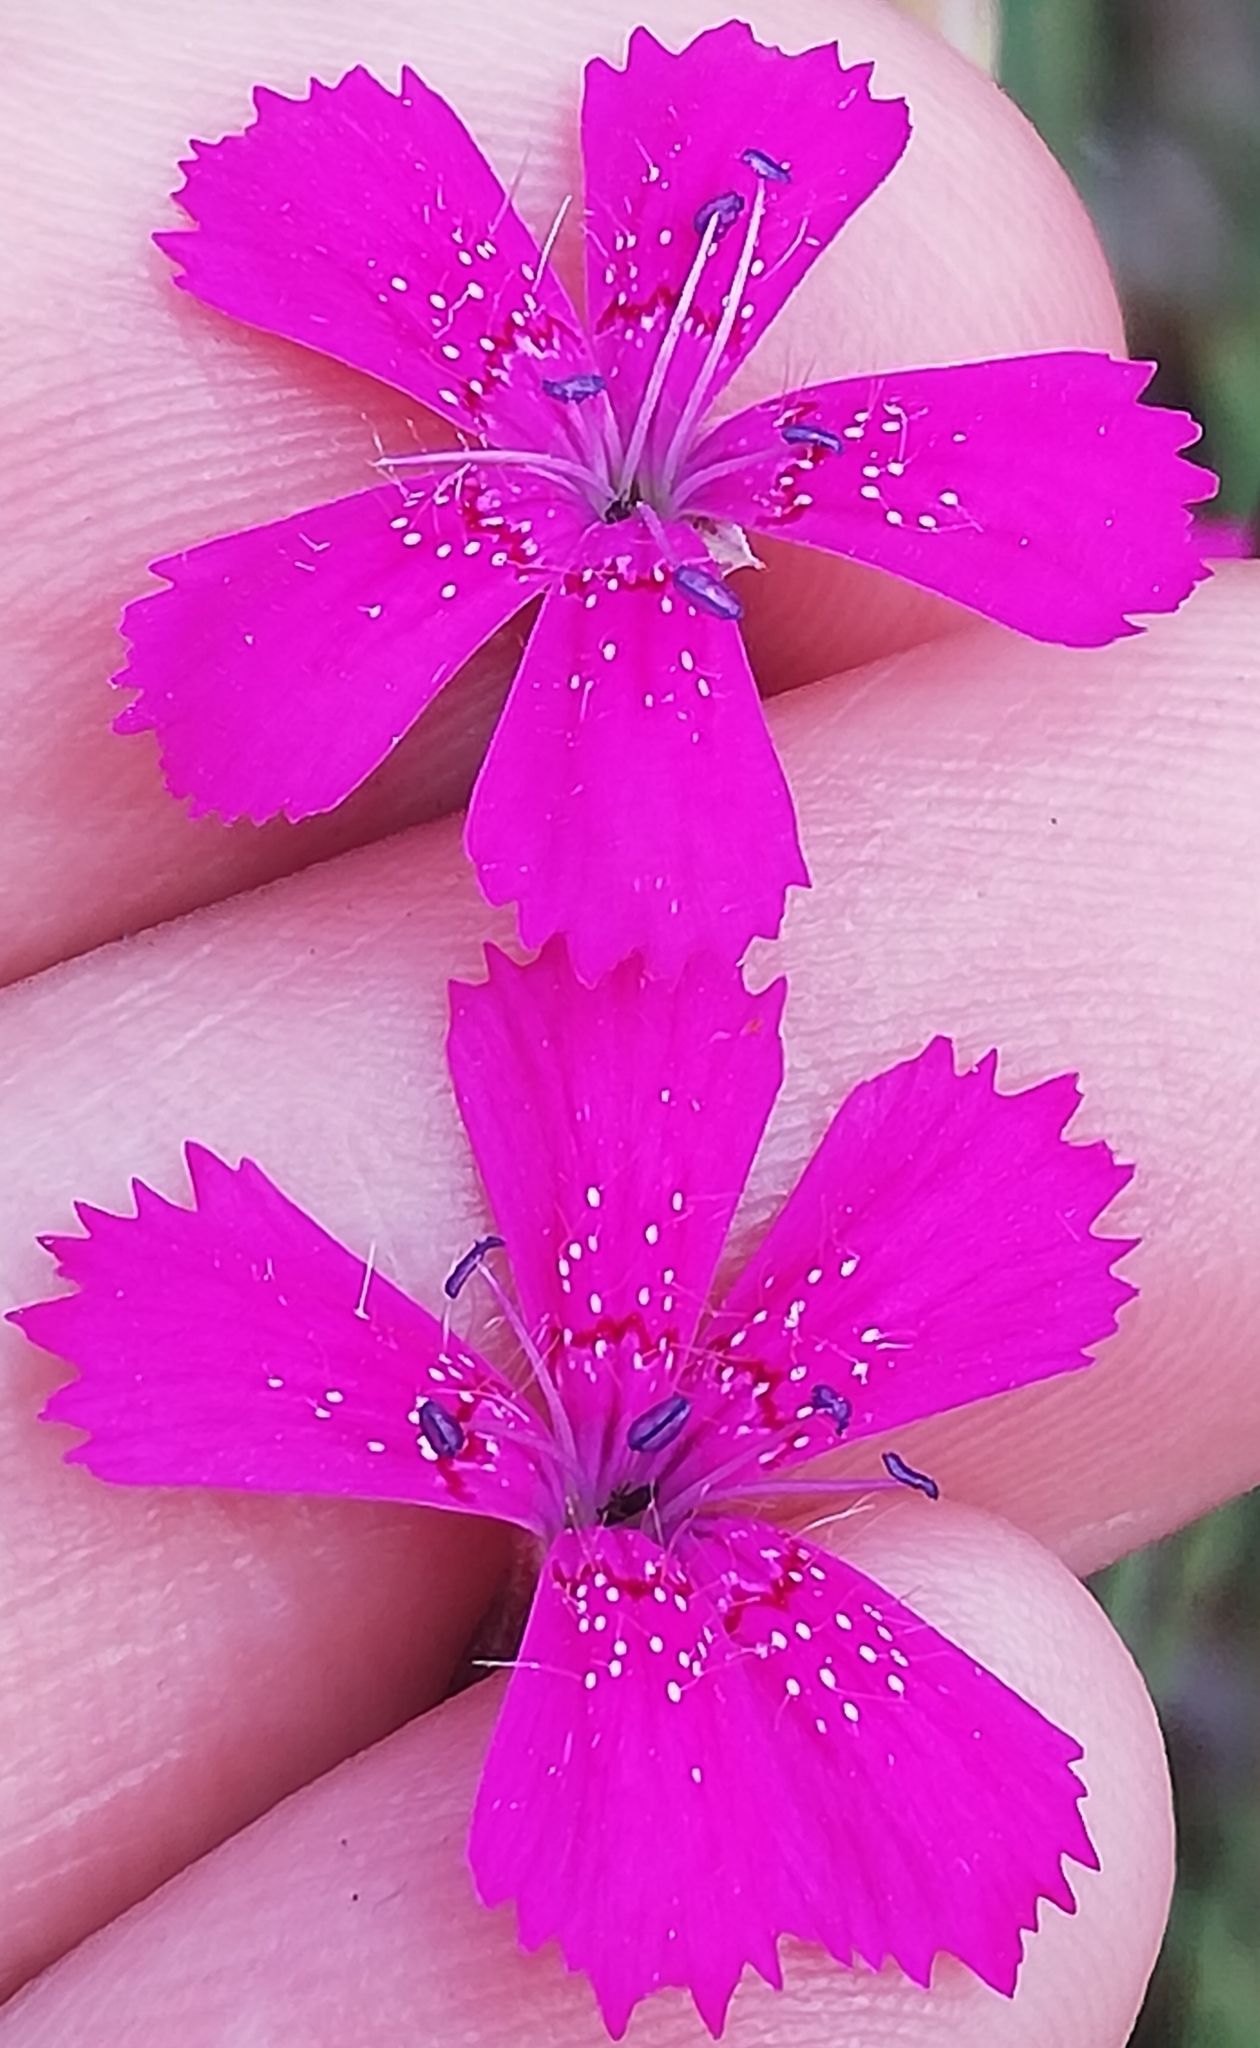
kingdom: Plantae
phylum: Tracheophyta
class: Magnoliopsida
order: Caryophyllales
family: Caryophyllaceae
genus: Dianthus
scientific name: Dianthus deltoides
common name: Maiden pink
